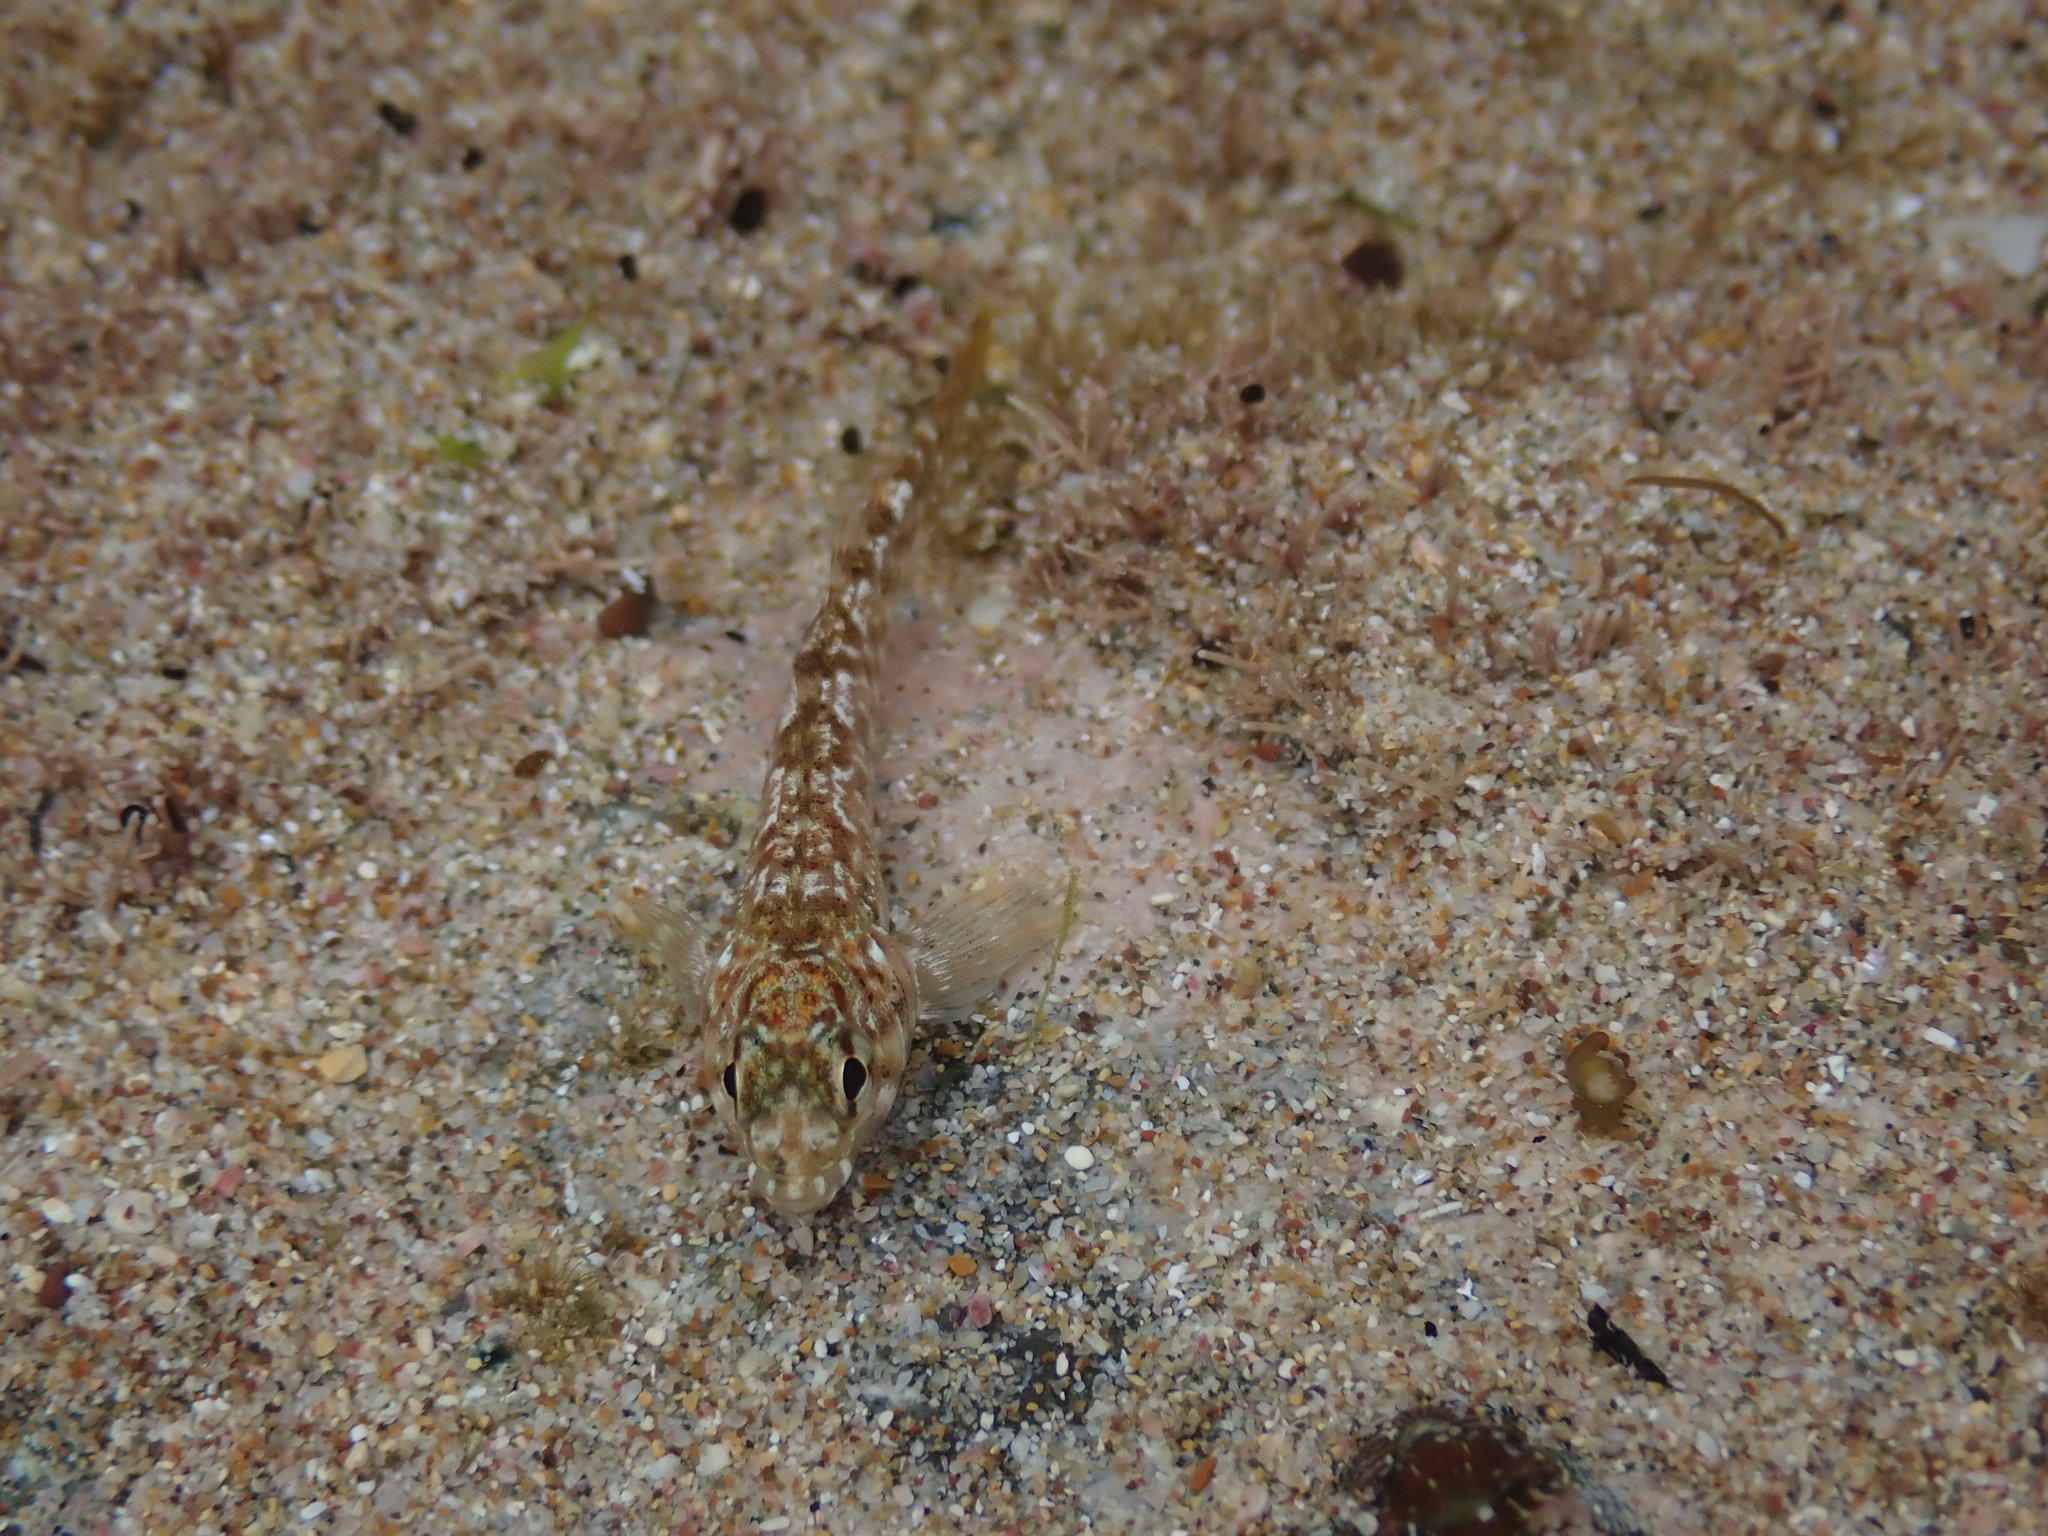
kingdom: Animalia
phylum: Chordata
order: Perciformes
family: Tripterygiidae
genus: Bellapiscis
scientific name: Bellapiscis medius
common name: Twister
